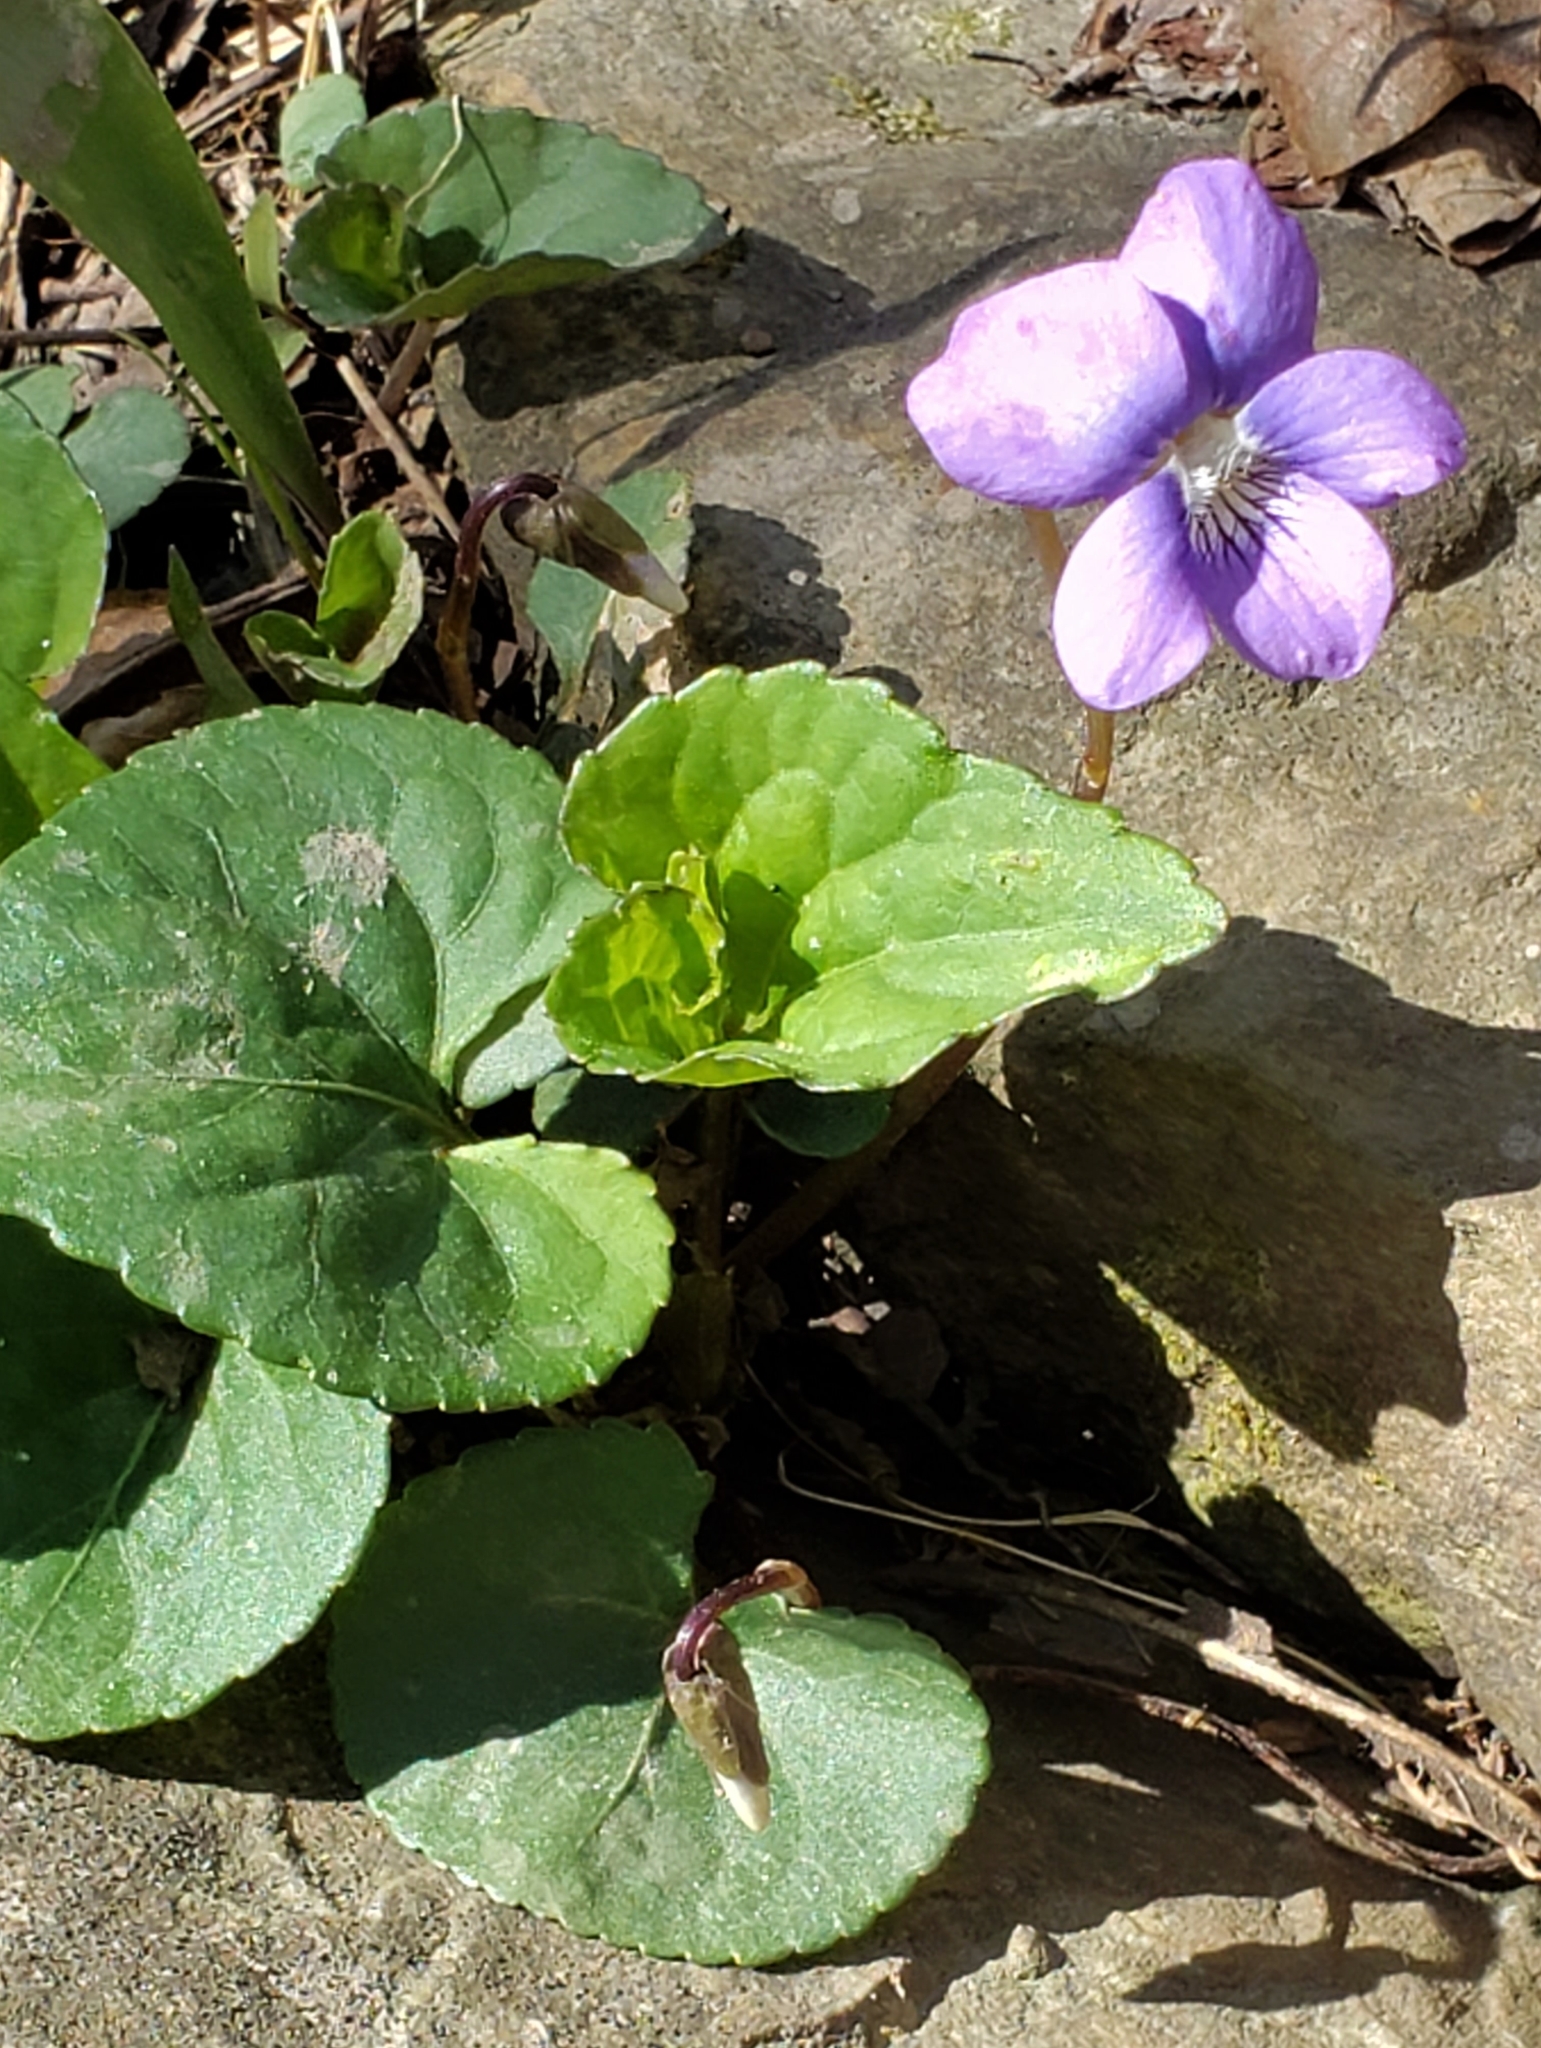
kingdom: Plantae
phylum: Tracheophyta
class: Magnoliopsida
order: Malpighiales
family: Violaceae
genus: Viola
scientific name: Viola sororia
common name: Dooryard violet
